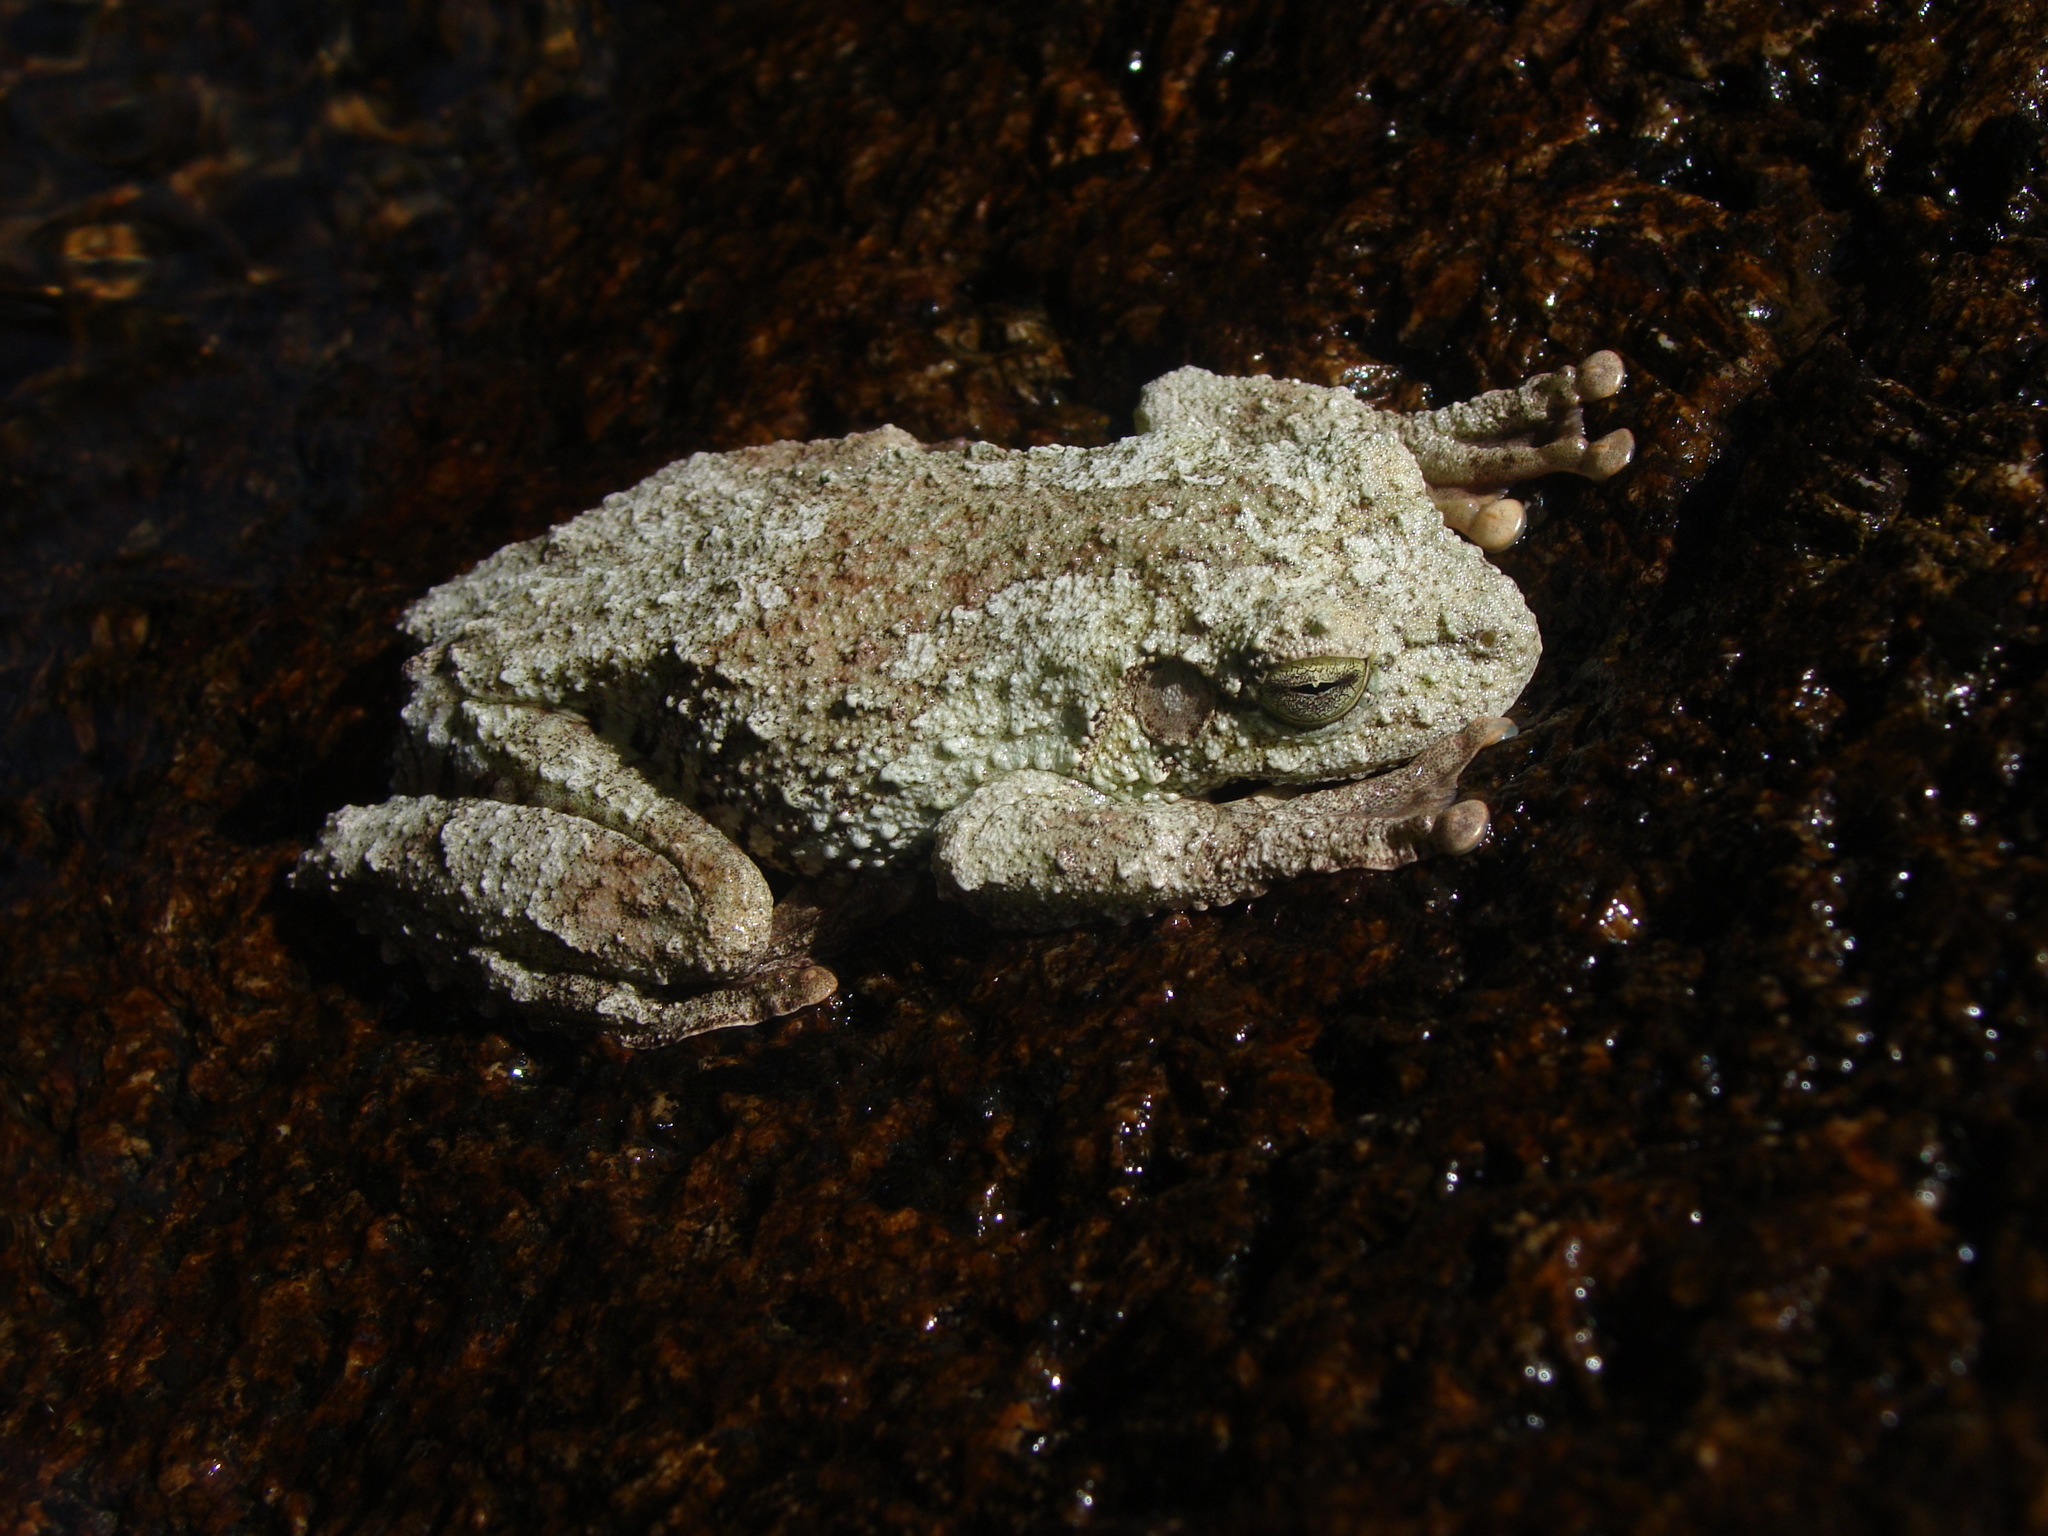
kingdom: Animalia
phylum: Chordata
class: Amphibia
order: Anura
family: Hylidae
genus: Bokermannohyla
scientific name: Bokermannohyla gouveai
